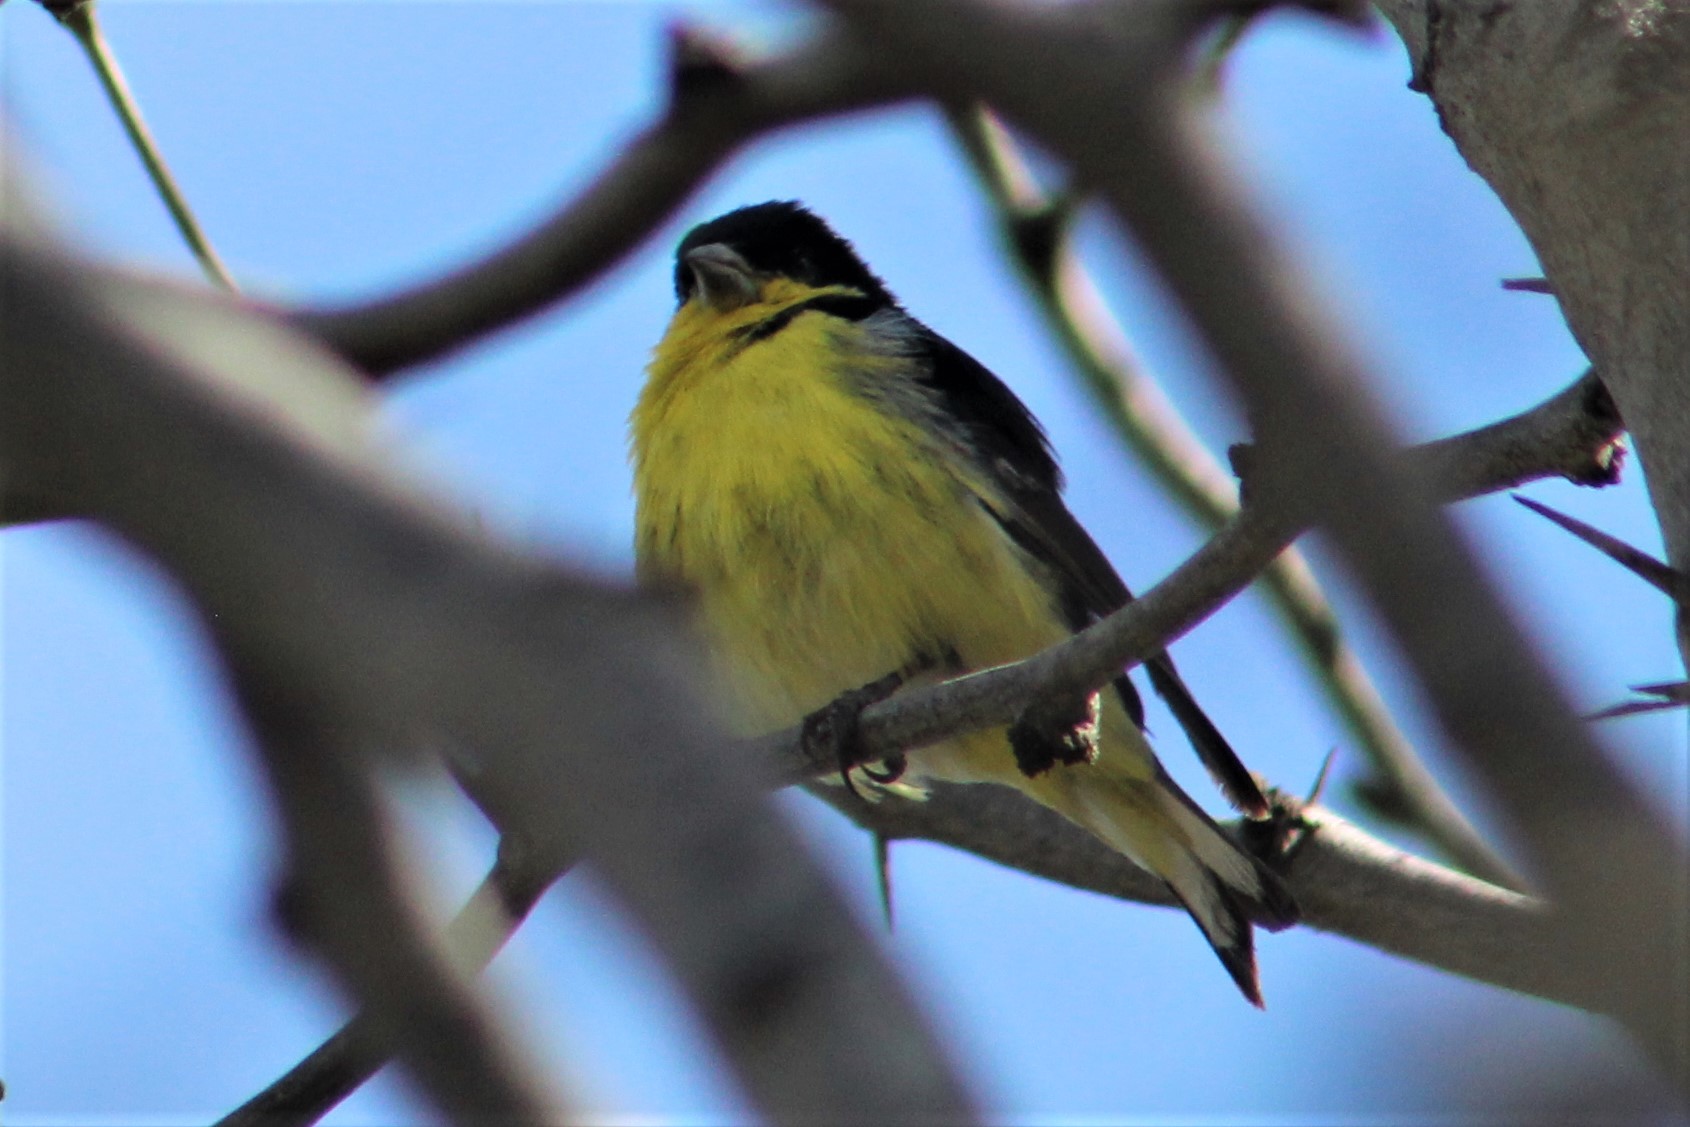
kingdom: Animalia
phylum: Chordata
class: Aves
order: Passeriformes
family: Fringillidae
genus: Spinus
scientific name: Spinus psaltria
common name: Lesser goldfinch
